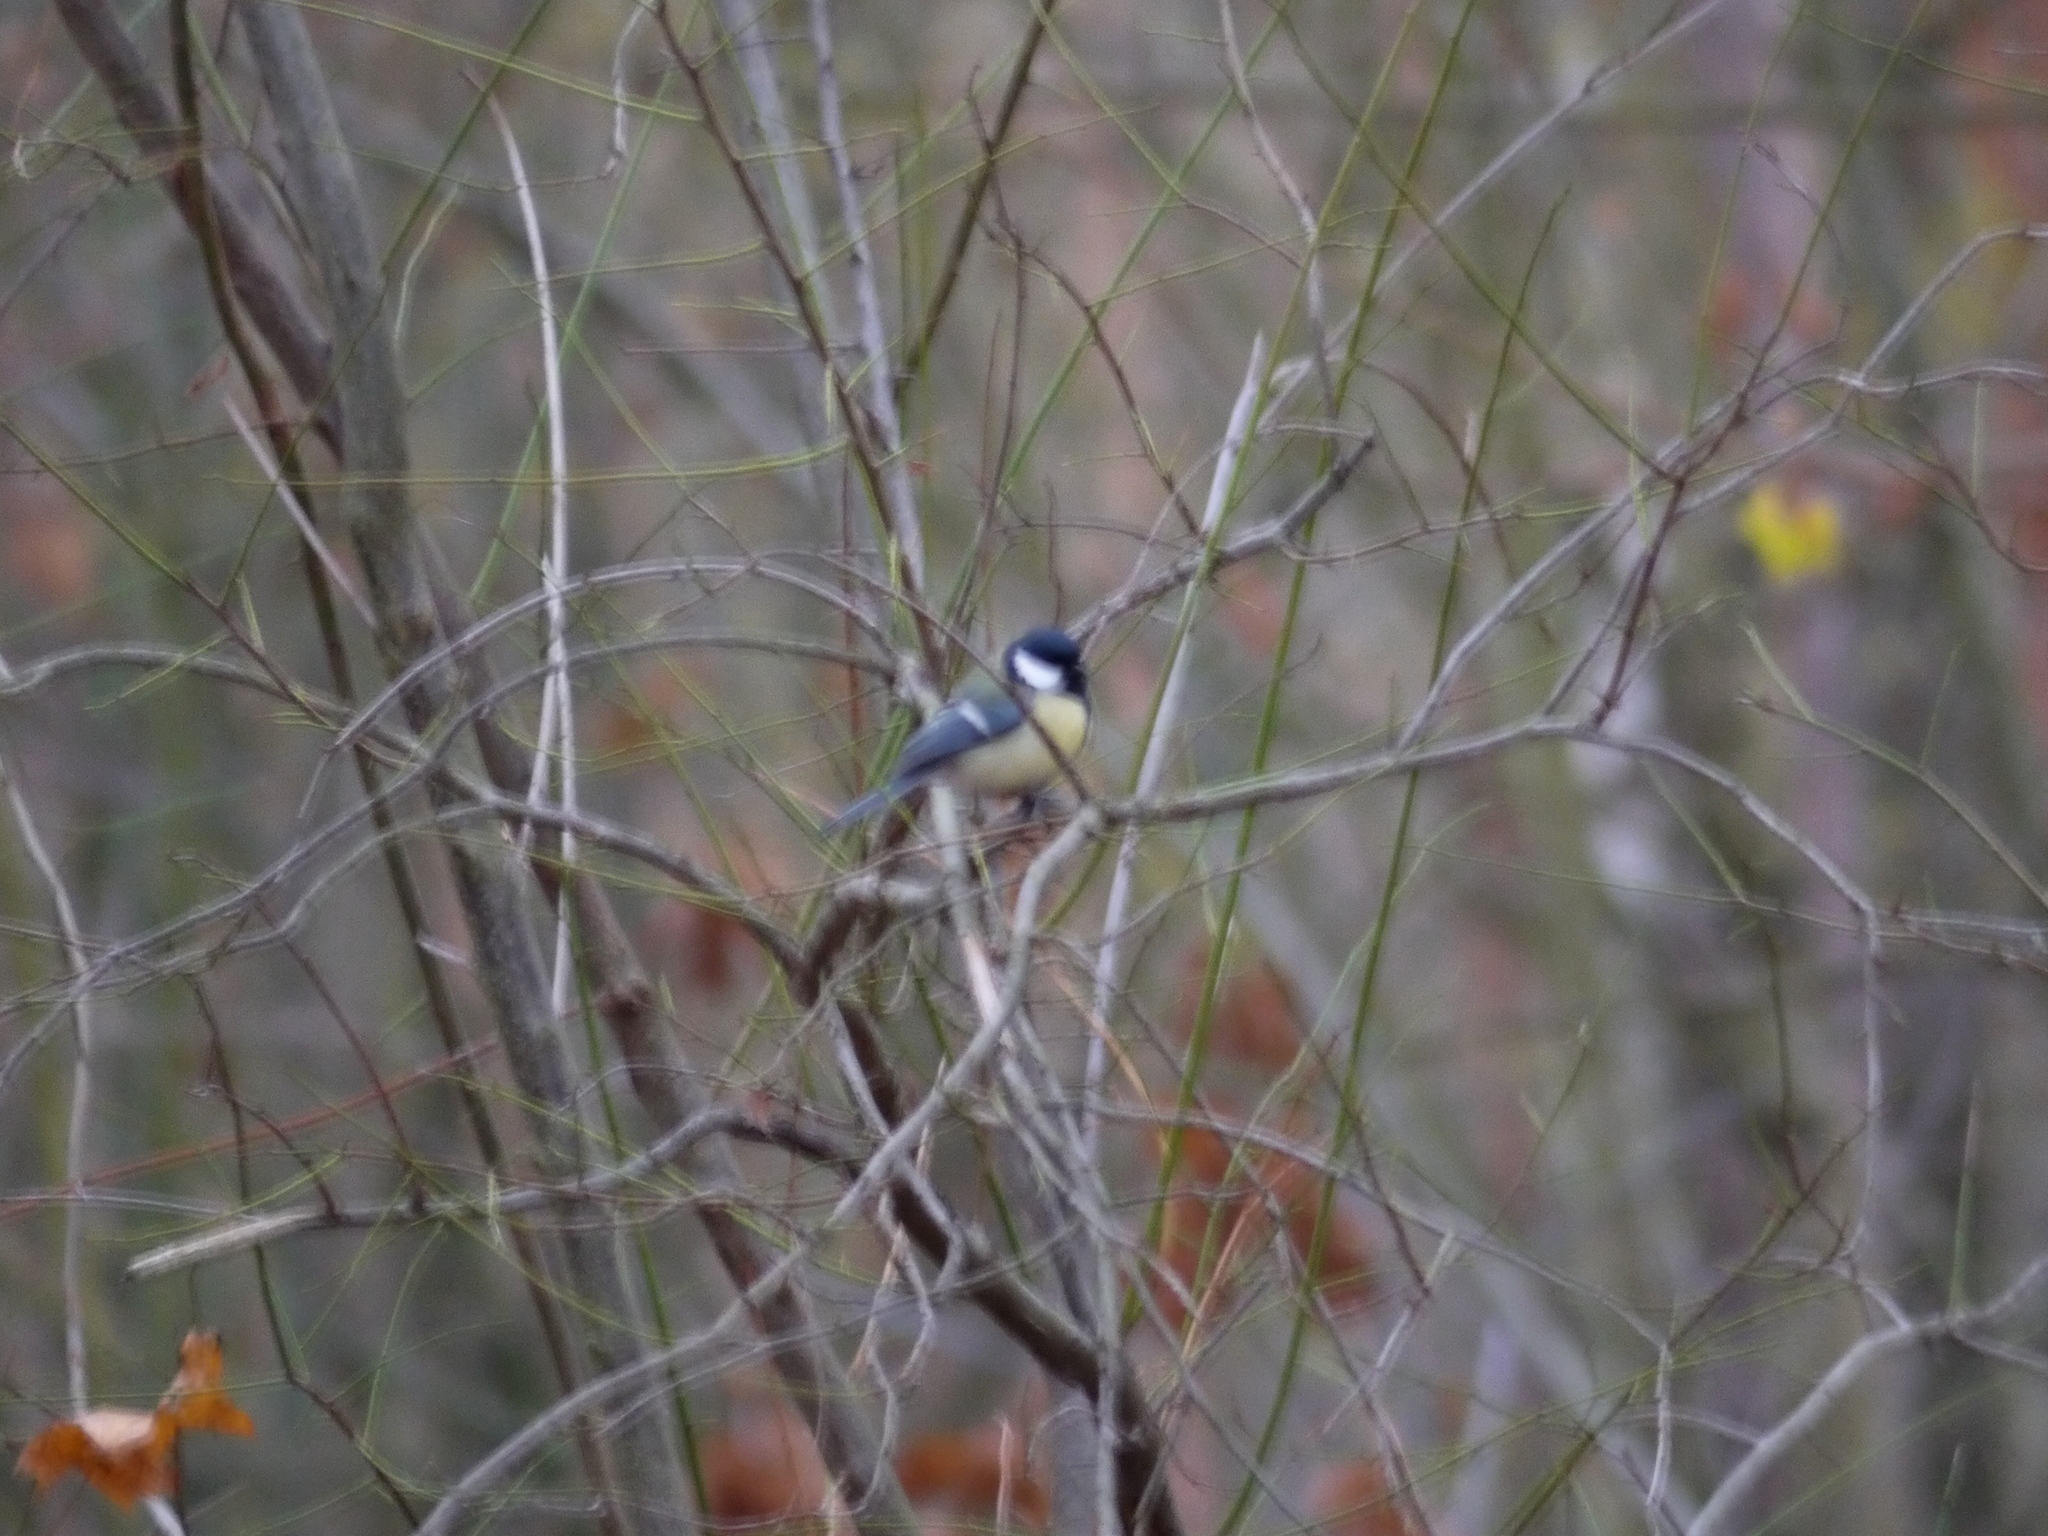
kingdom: Animalia
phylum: Chordata
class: Aves
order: Passeriformes
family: Paridae
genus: Parus
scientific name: Parus major
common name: Great tit
